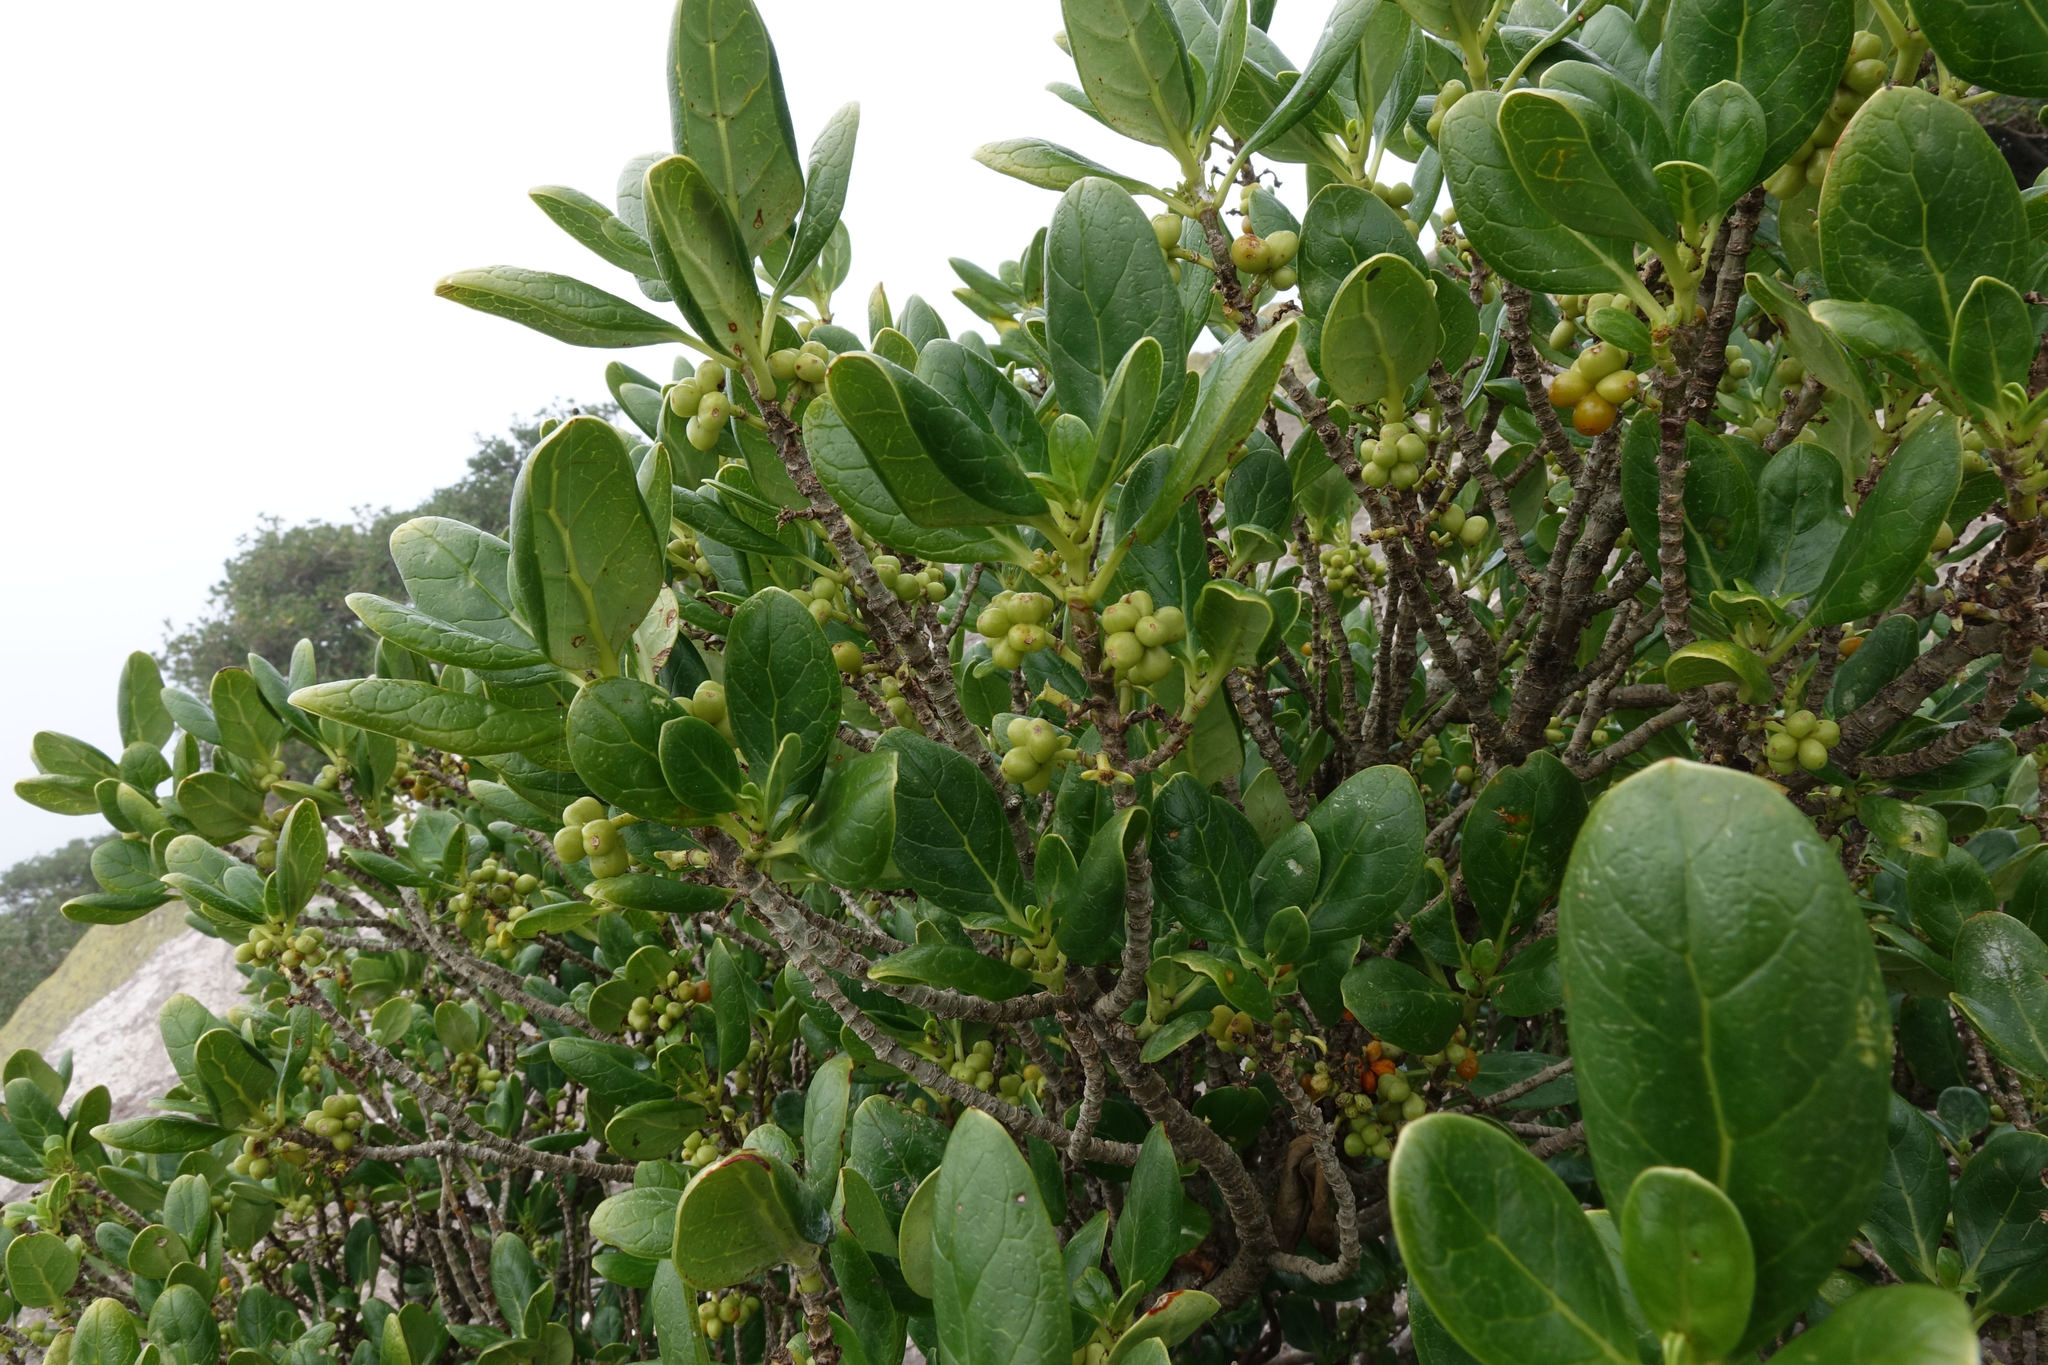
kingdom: Plantae
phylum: Tracheophyta
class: Magnoliopsida
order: Gentianales
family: Rubiaceae
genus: Coprosma
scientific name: Coprosma repens
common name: Tree bedstraw
